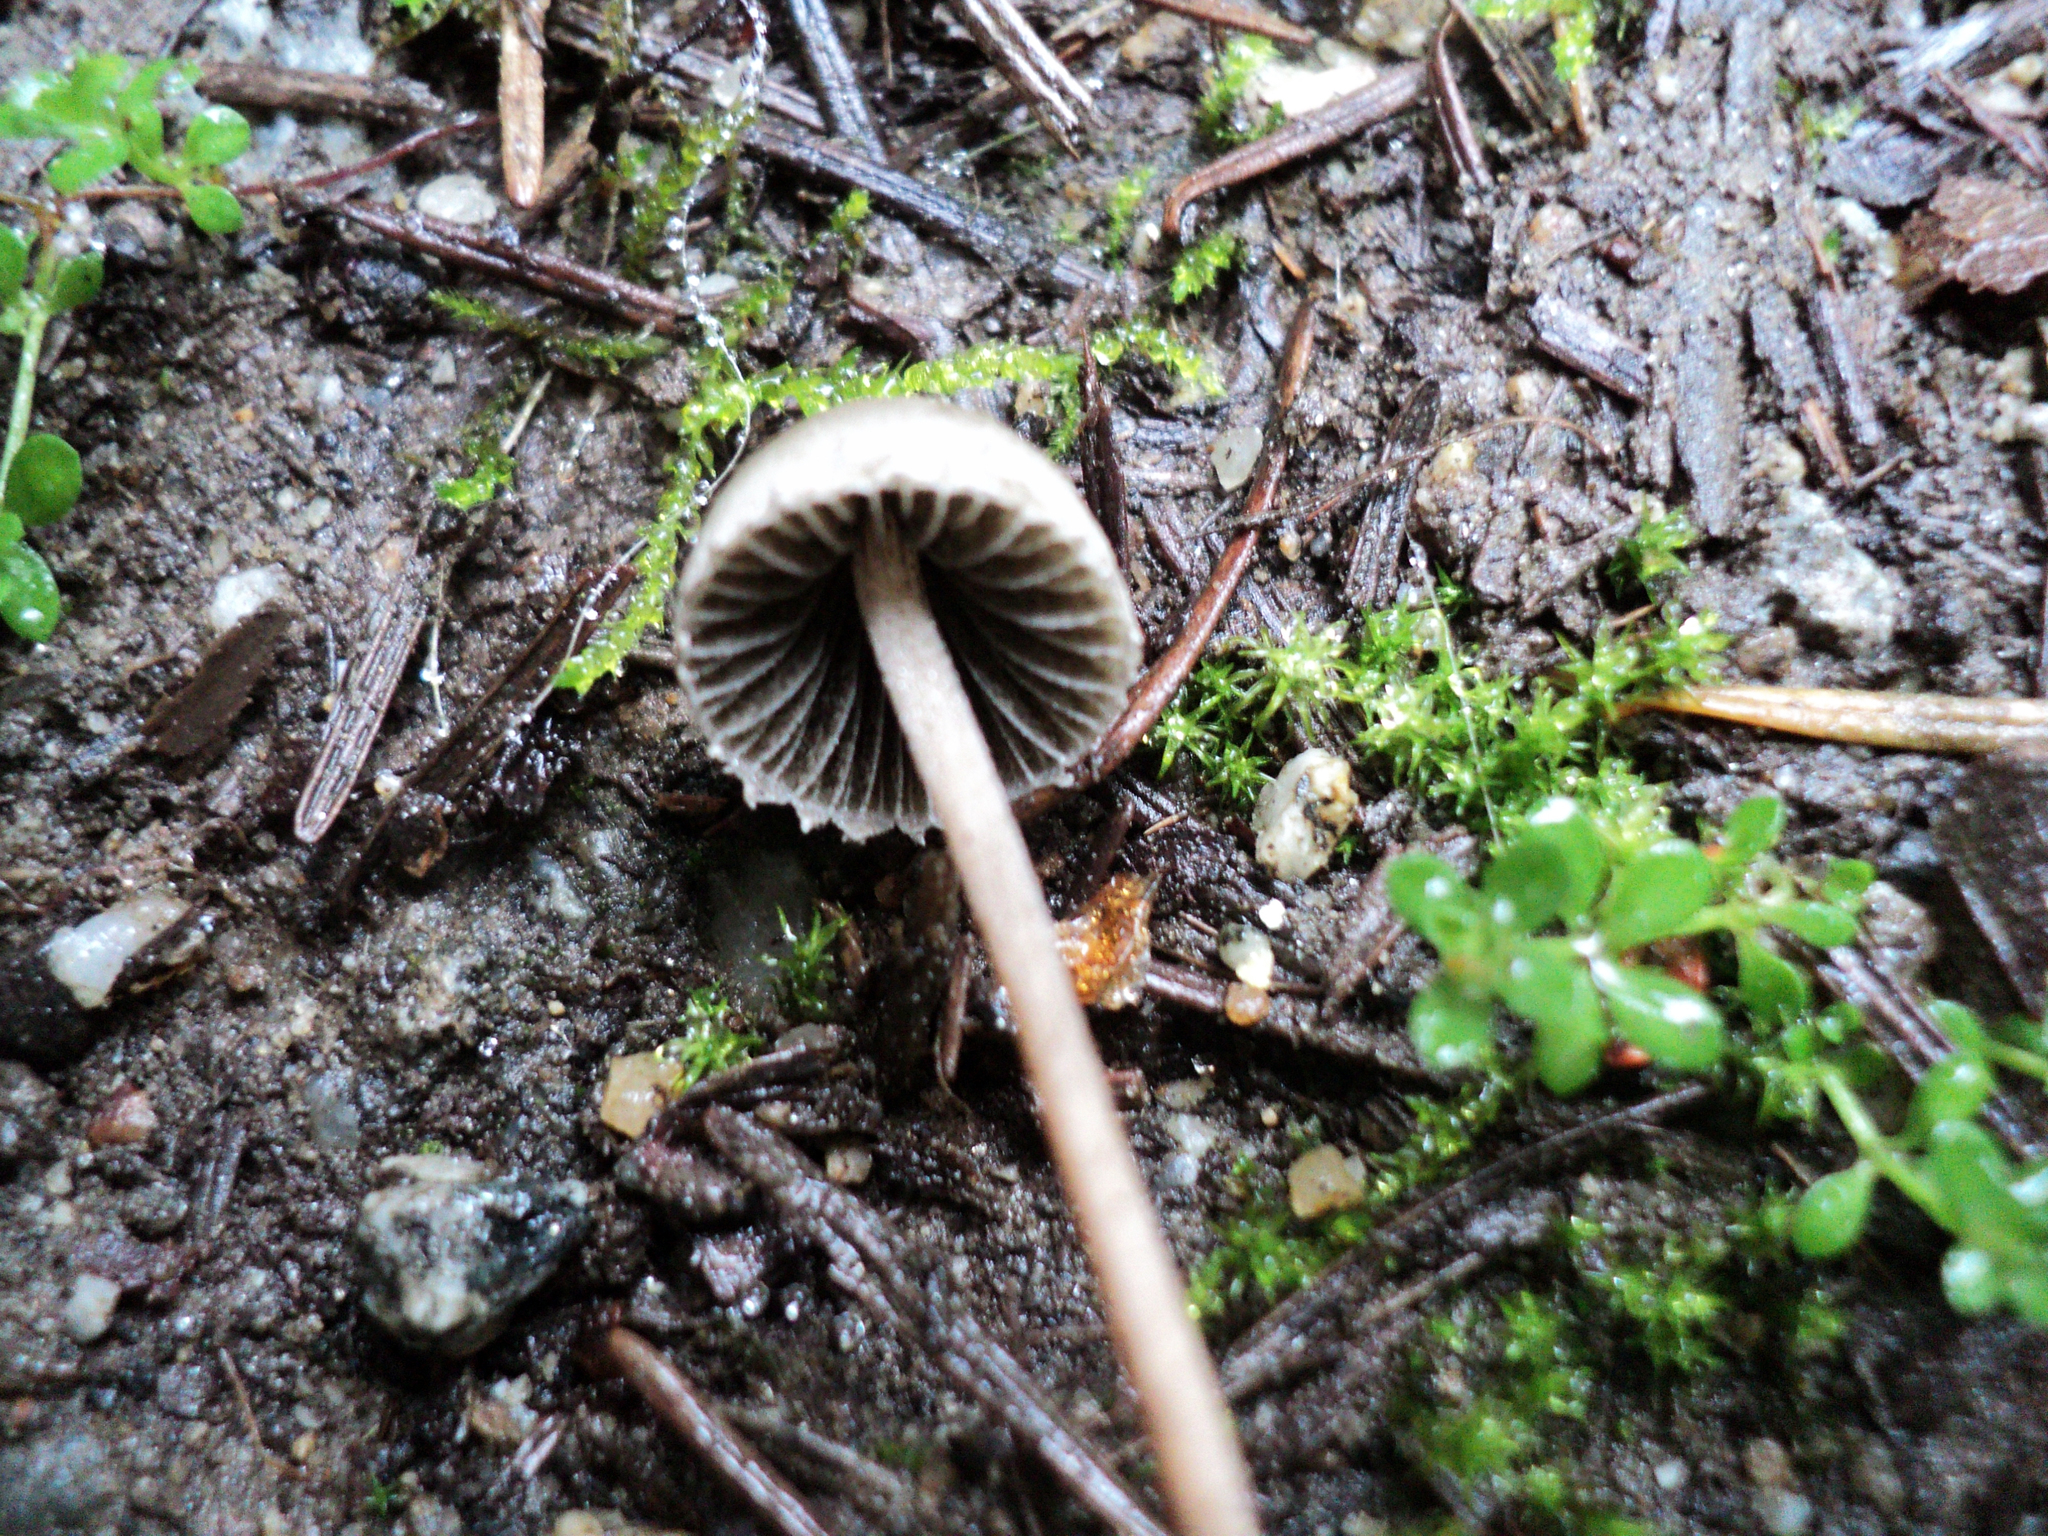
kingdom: Fungi
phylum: Basidiomycota
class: Agaricomycetes
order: Agaricales
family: Bolbitiaceae
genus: Panaeolus
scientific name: Panaeolus papilionaceus
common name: Petticoat mottlegill
